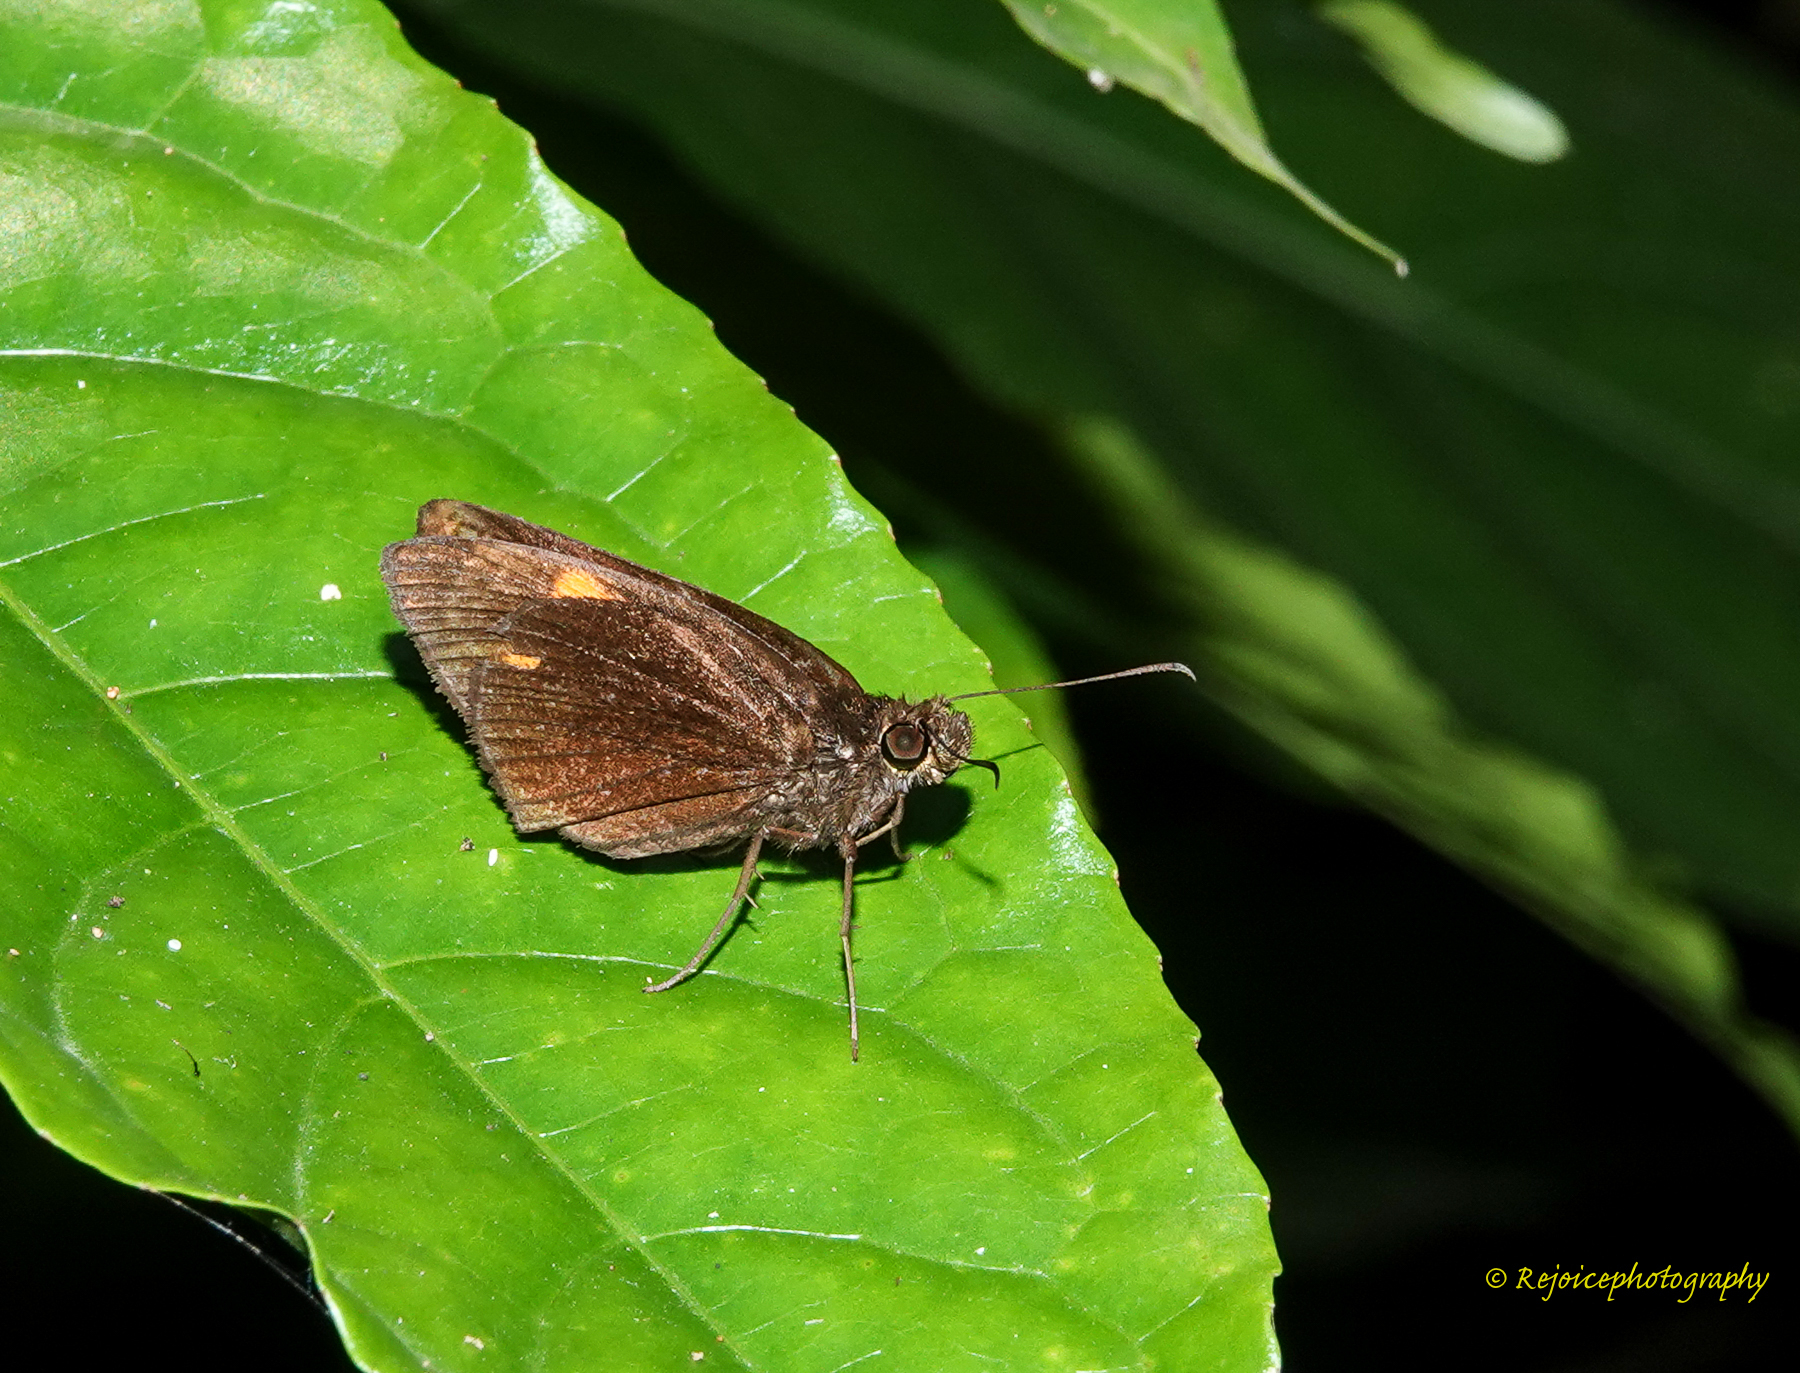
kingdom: Animalia
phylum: Arthropoda
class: Insecta
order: Lepidoptera
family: Hesperiidae
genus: Koruthaialos
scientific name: Koruthaialos sindu
